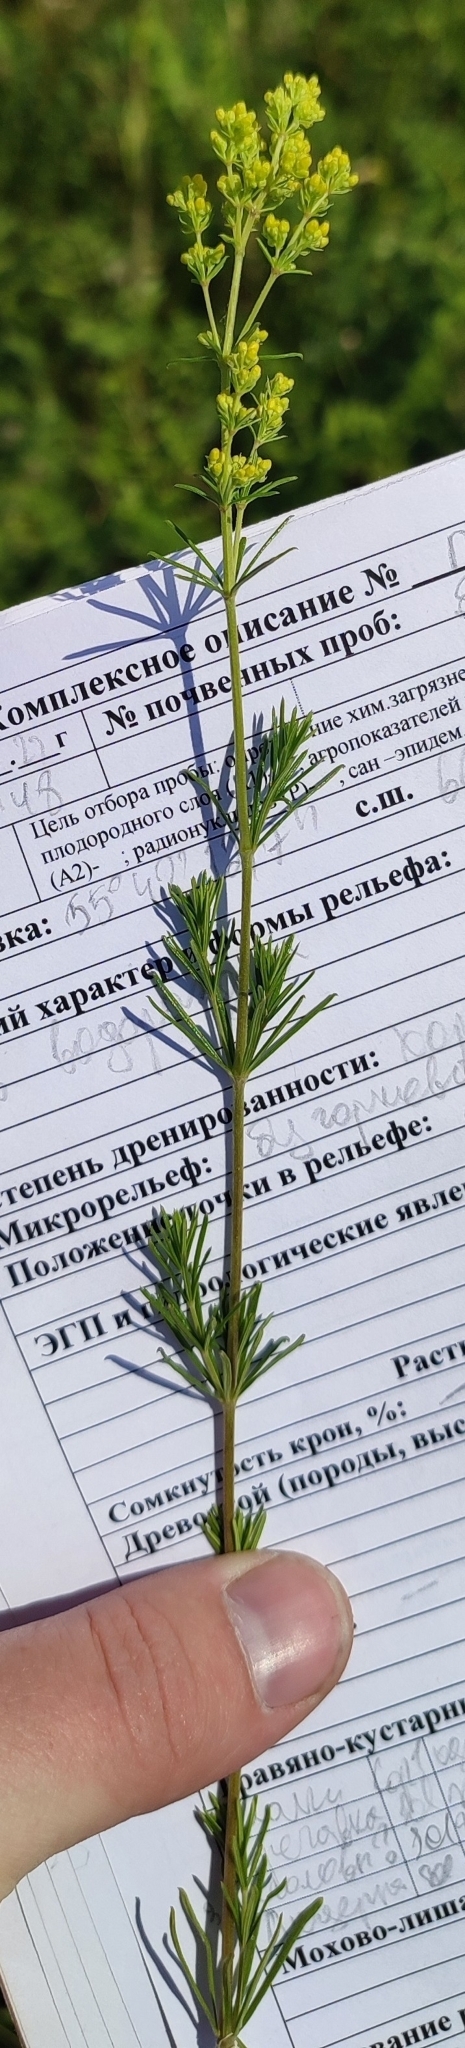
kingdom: Plantae
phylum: Tracheophyta
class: Magnoliopsida
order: Gentianales
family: Rubiaceae
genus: Galium
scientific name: Galium verum
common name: Lady's bedstraw
